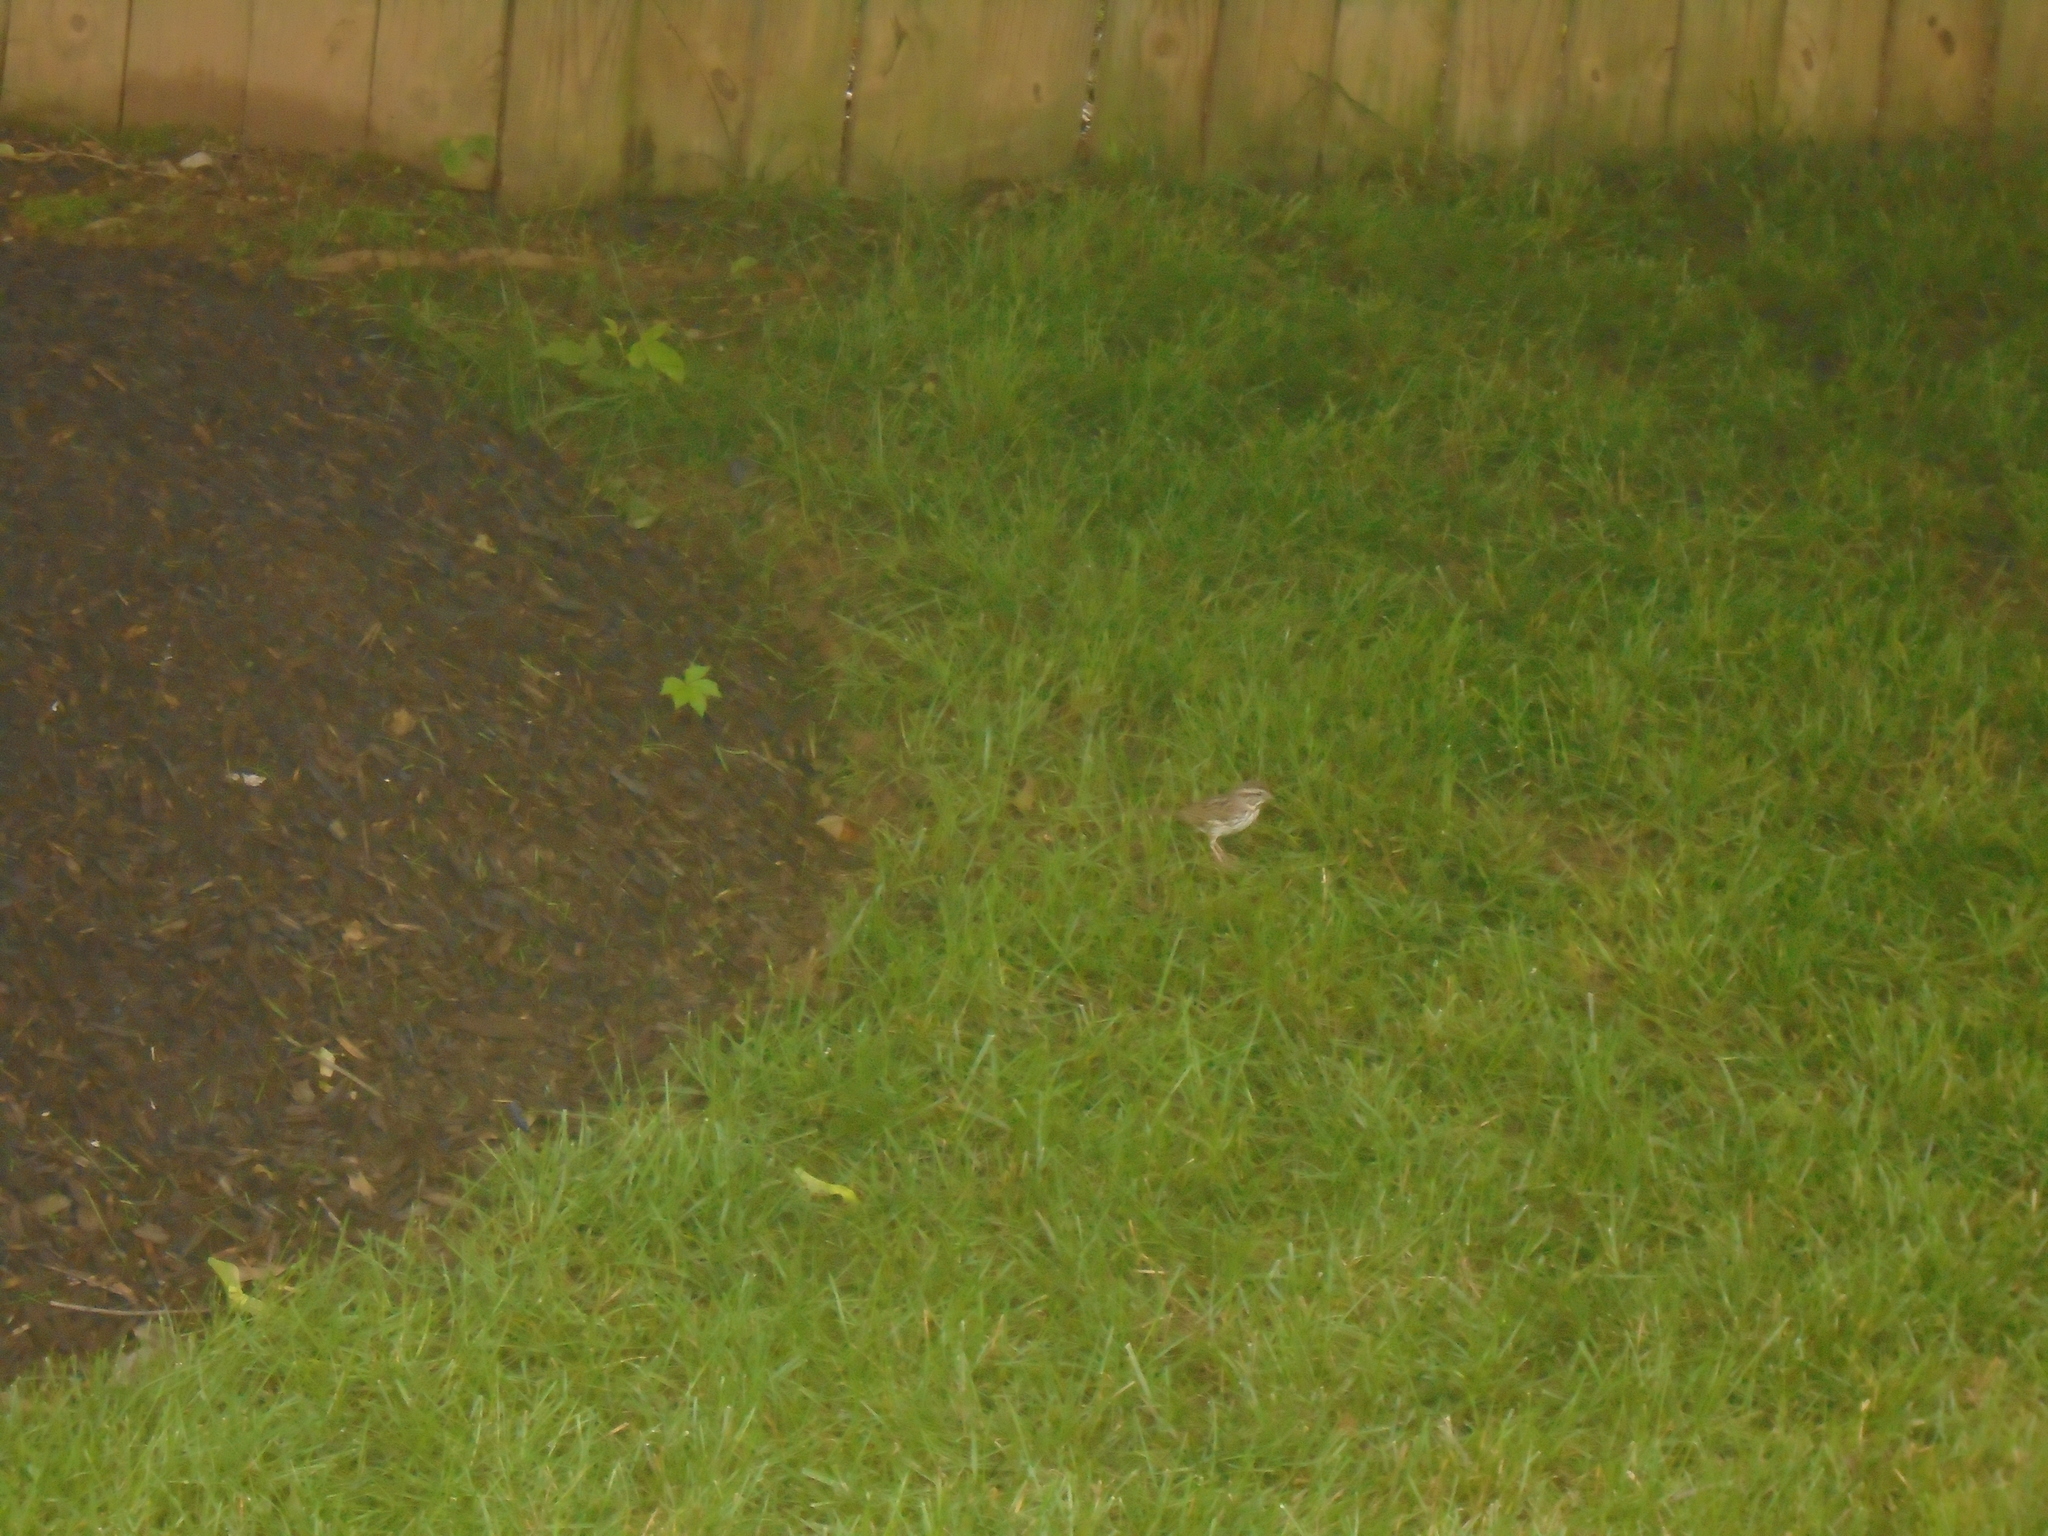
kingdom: Animalia
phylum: Chordata
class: Aves
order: Passeriformes
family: Passerellidae
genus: Melospiza
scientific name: Melospiza melodia
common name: Song sparrow
